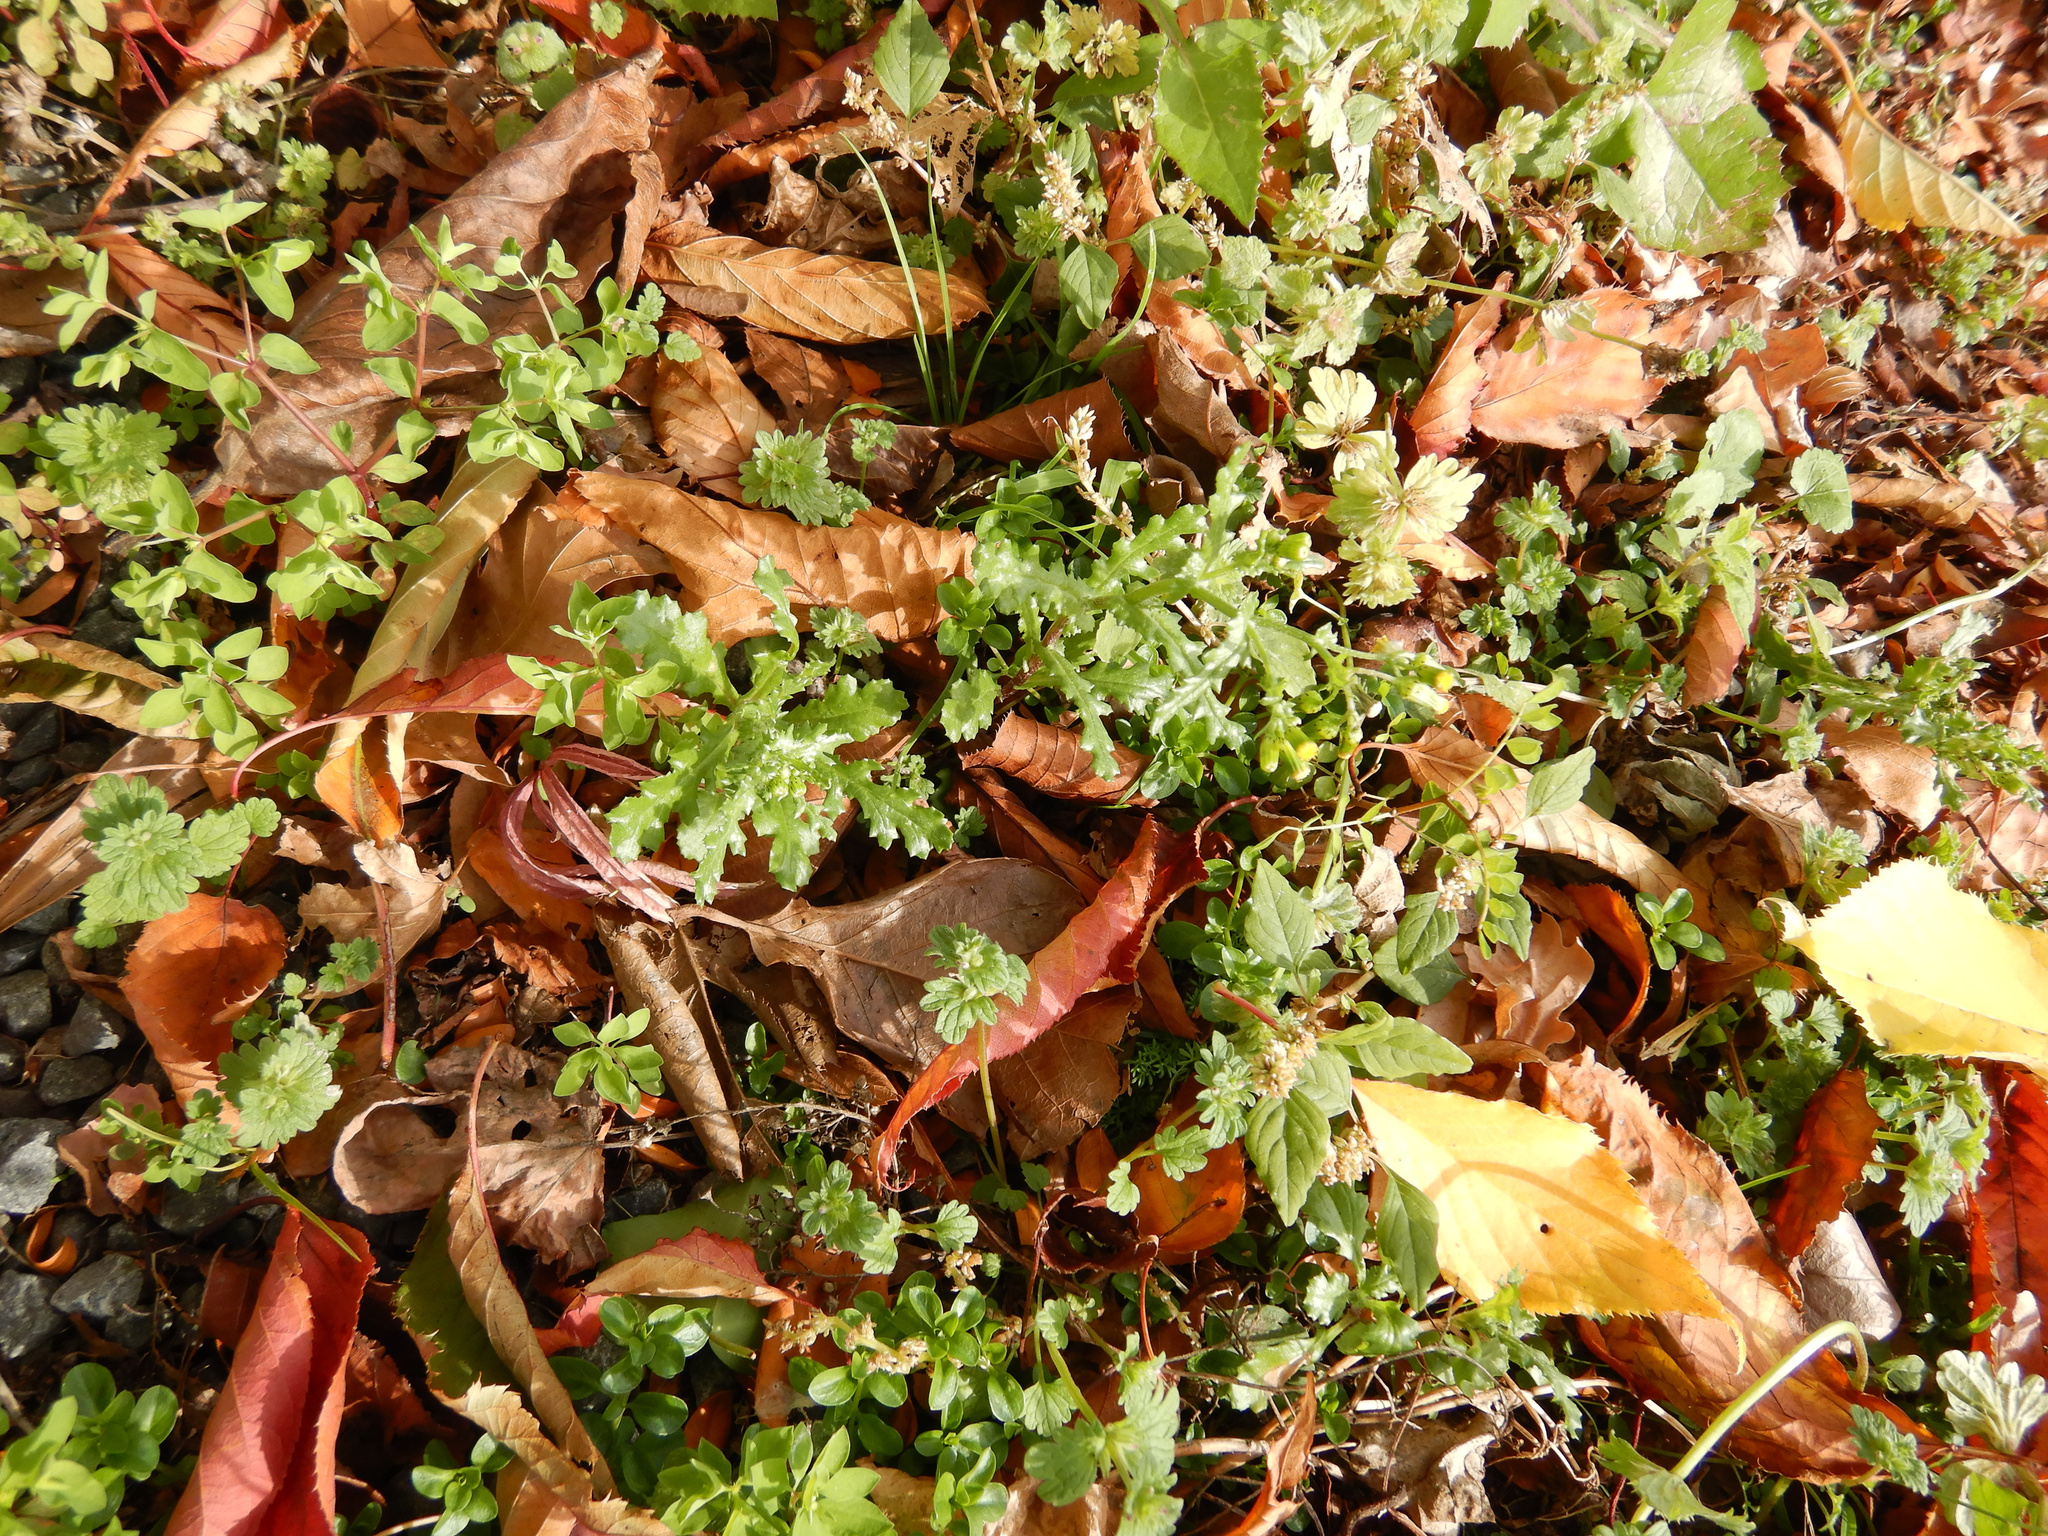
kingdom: Plantae
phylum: Tracheophyta
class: Magnoliopsida
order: Asterales
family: Asteraceae
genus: Senecio
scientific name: Senecio vulgaris
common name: Old-man-in-the-spring
